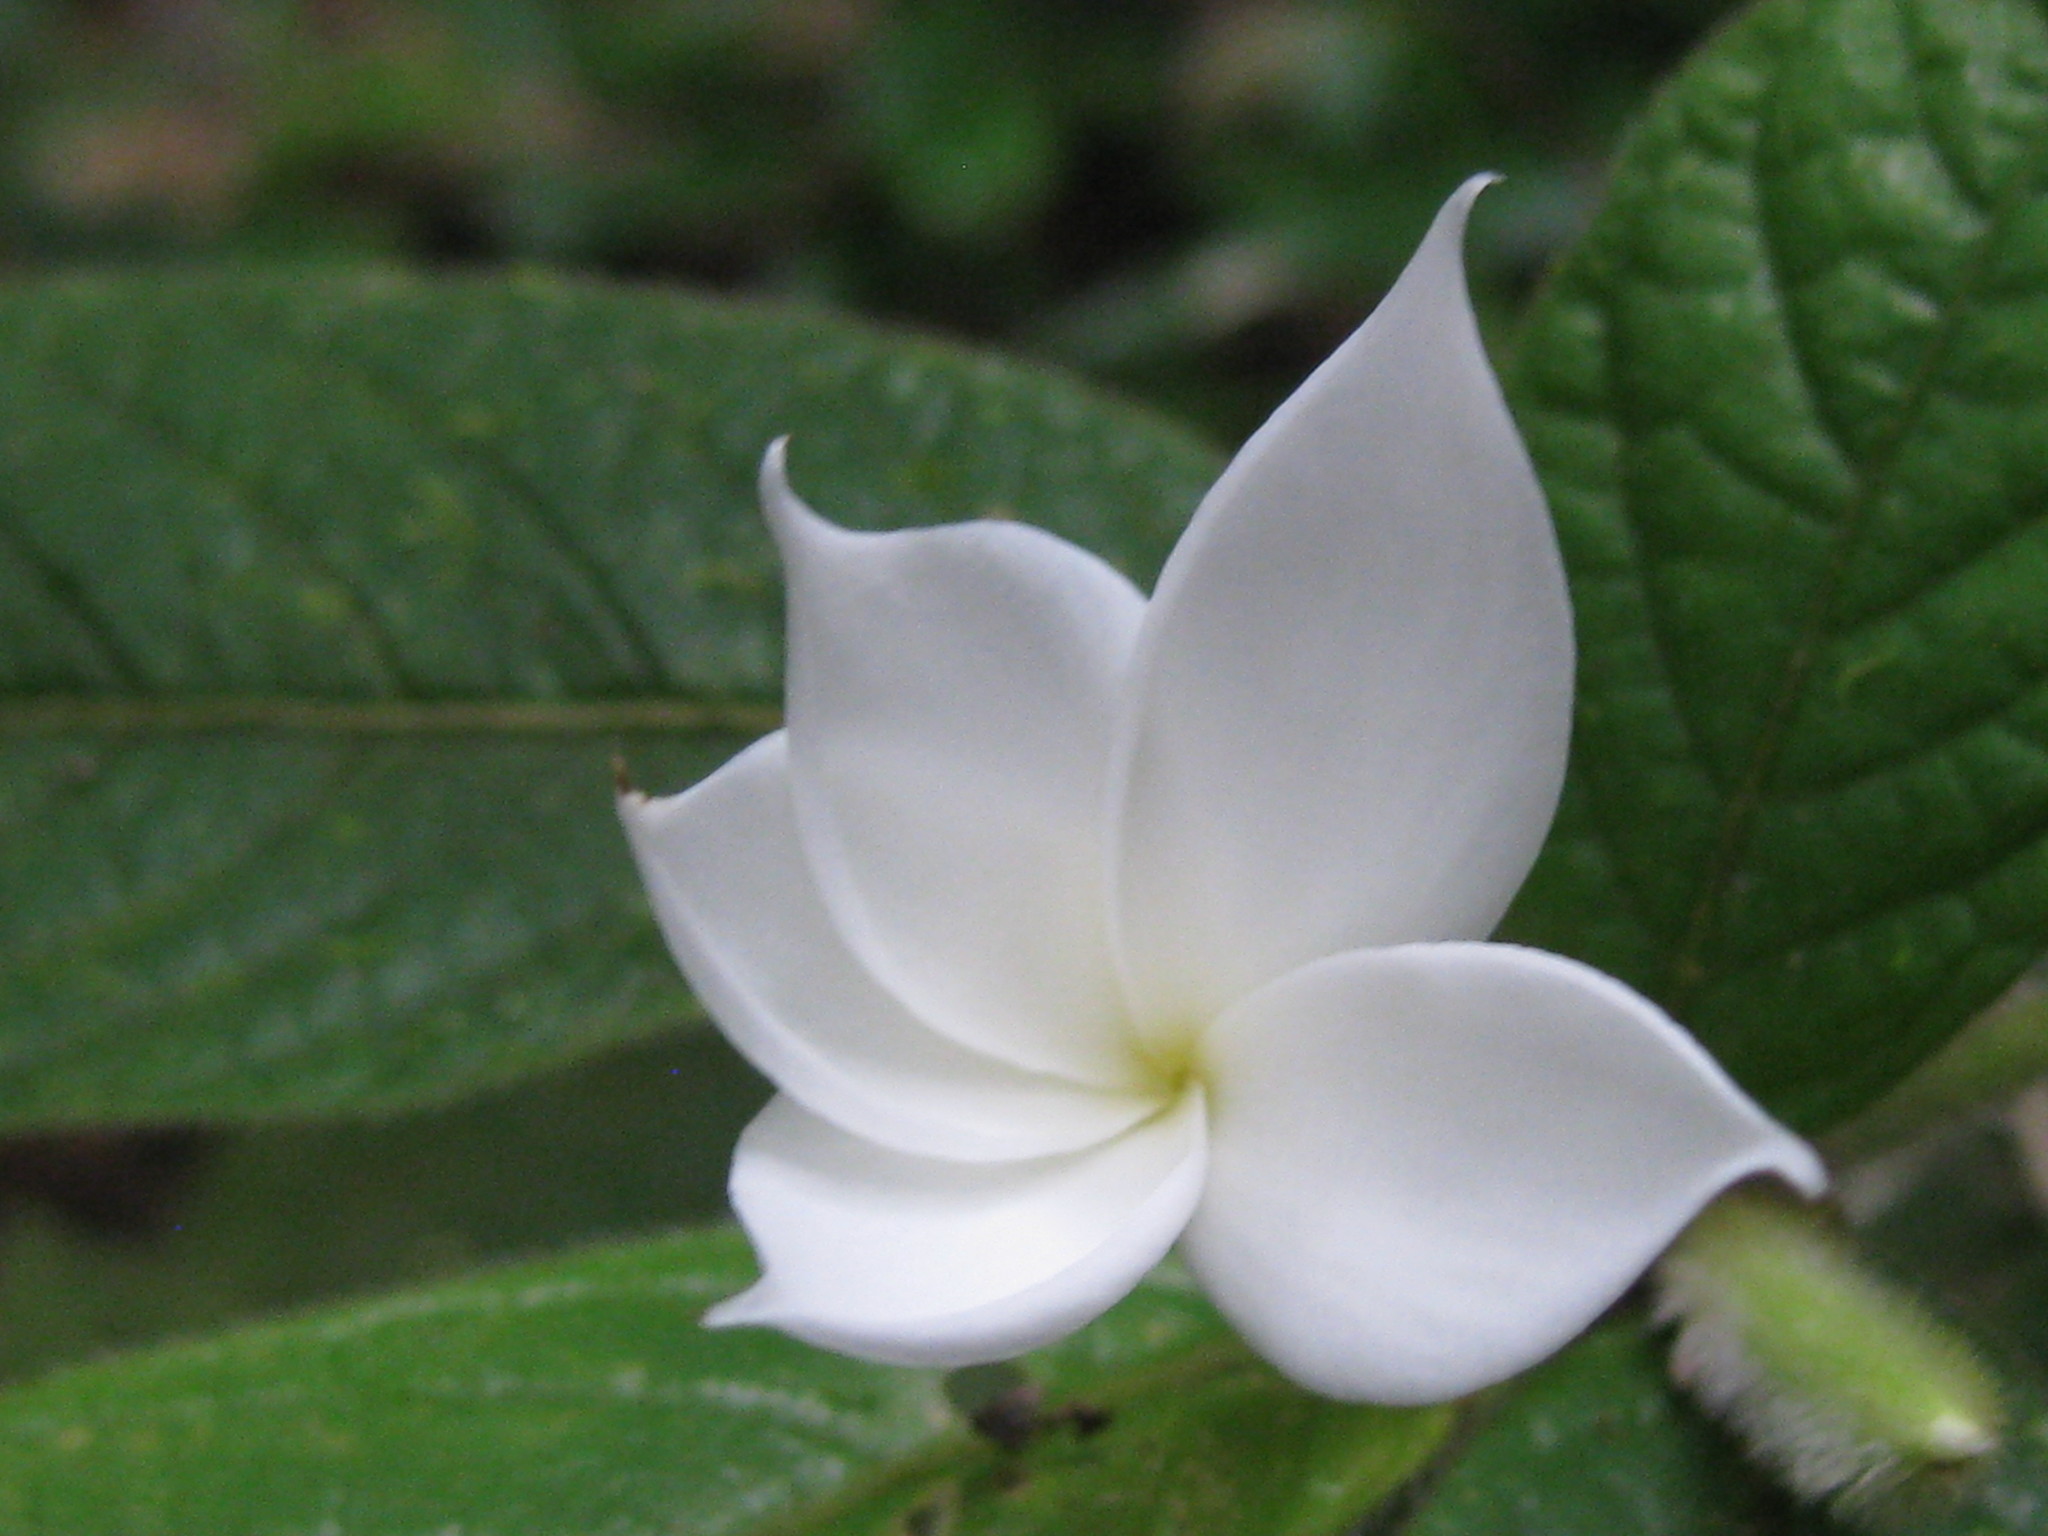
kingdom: Plantae
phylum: Tracheophyta
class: Magnoliopsida
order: Gentianales
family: Rubiaceae
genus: Atractocarpus
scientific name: Atractocarpus hirtus
